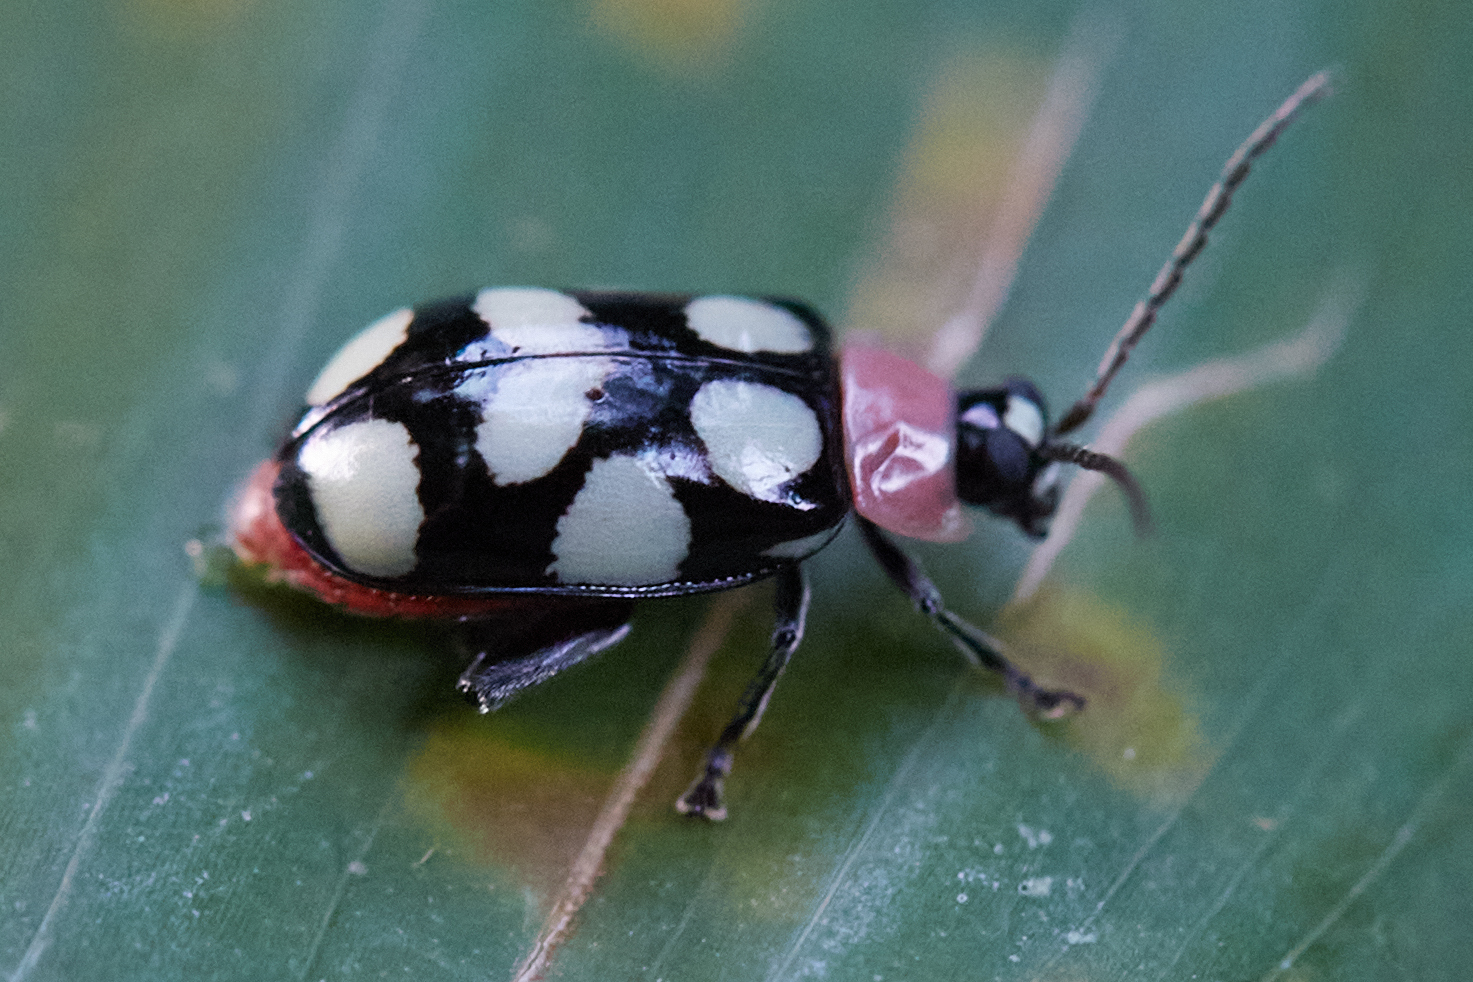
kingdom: Animalia
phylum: Arthropoda
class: Insecta
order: Coleoptera
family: Chrysomelidae
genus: Omophoita
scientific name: Omophoita aequinoctialis
